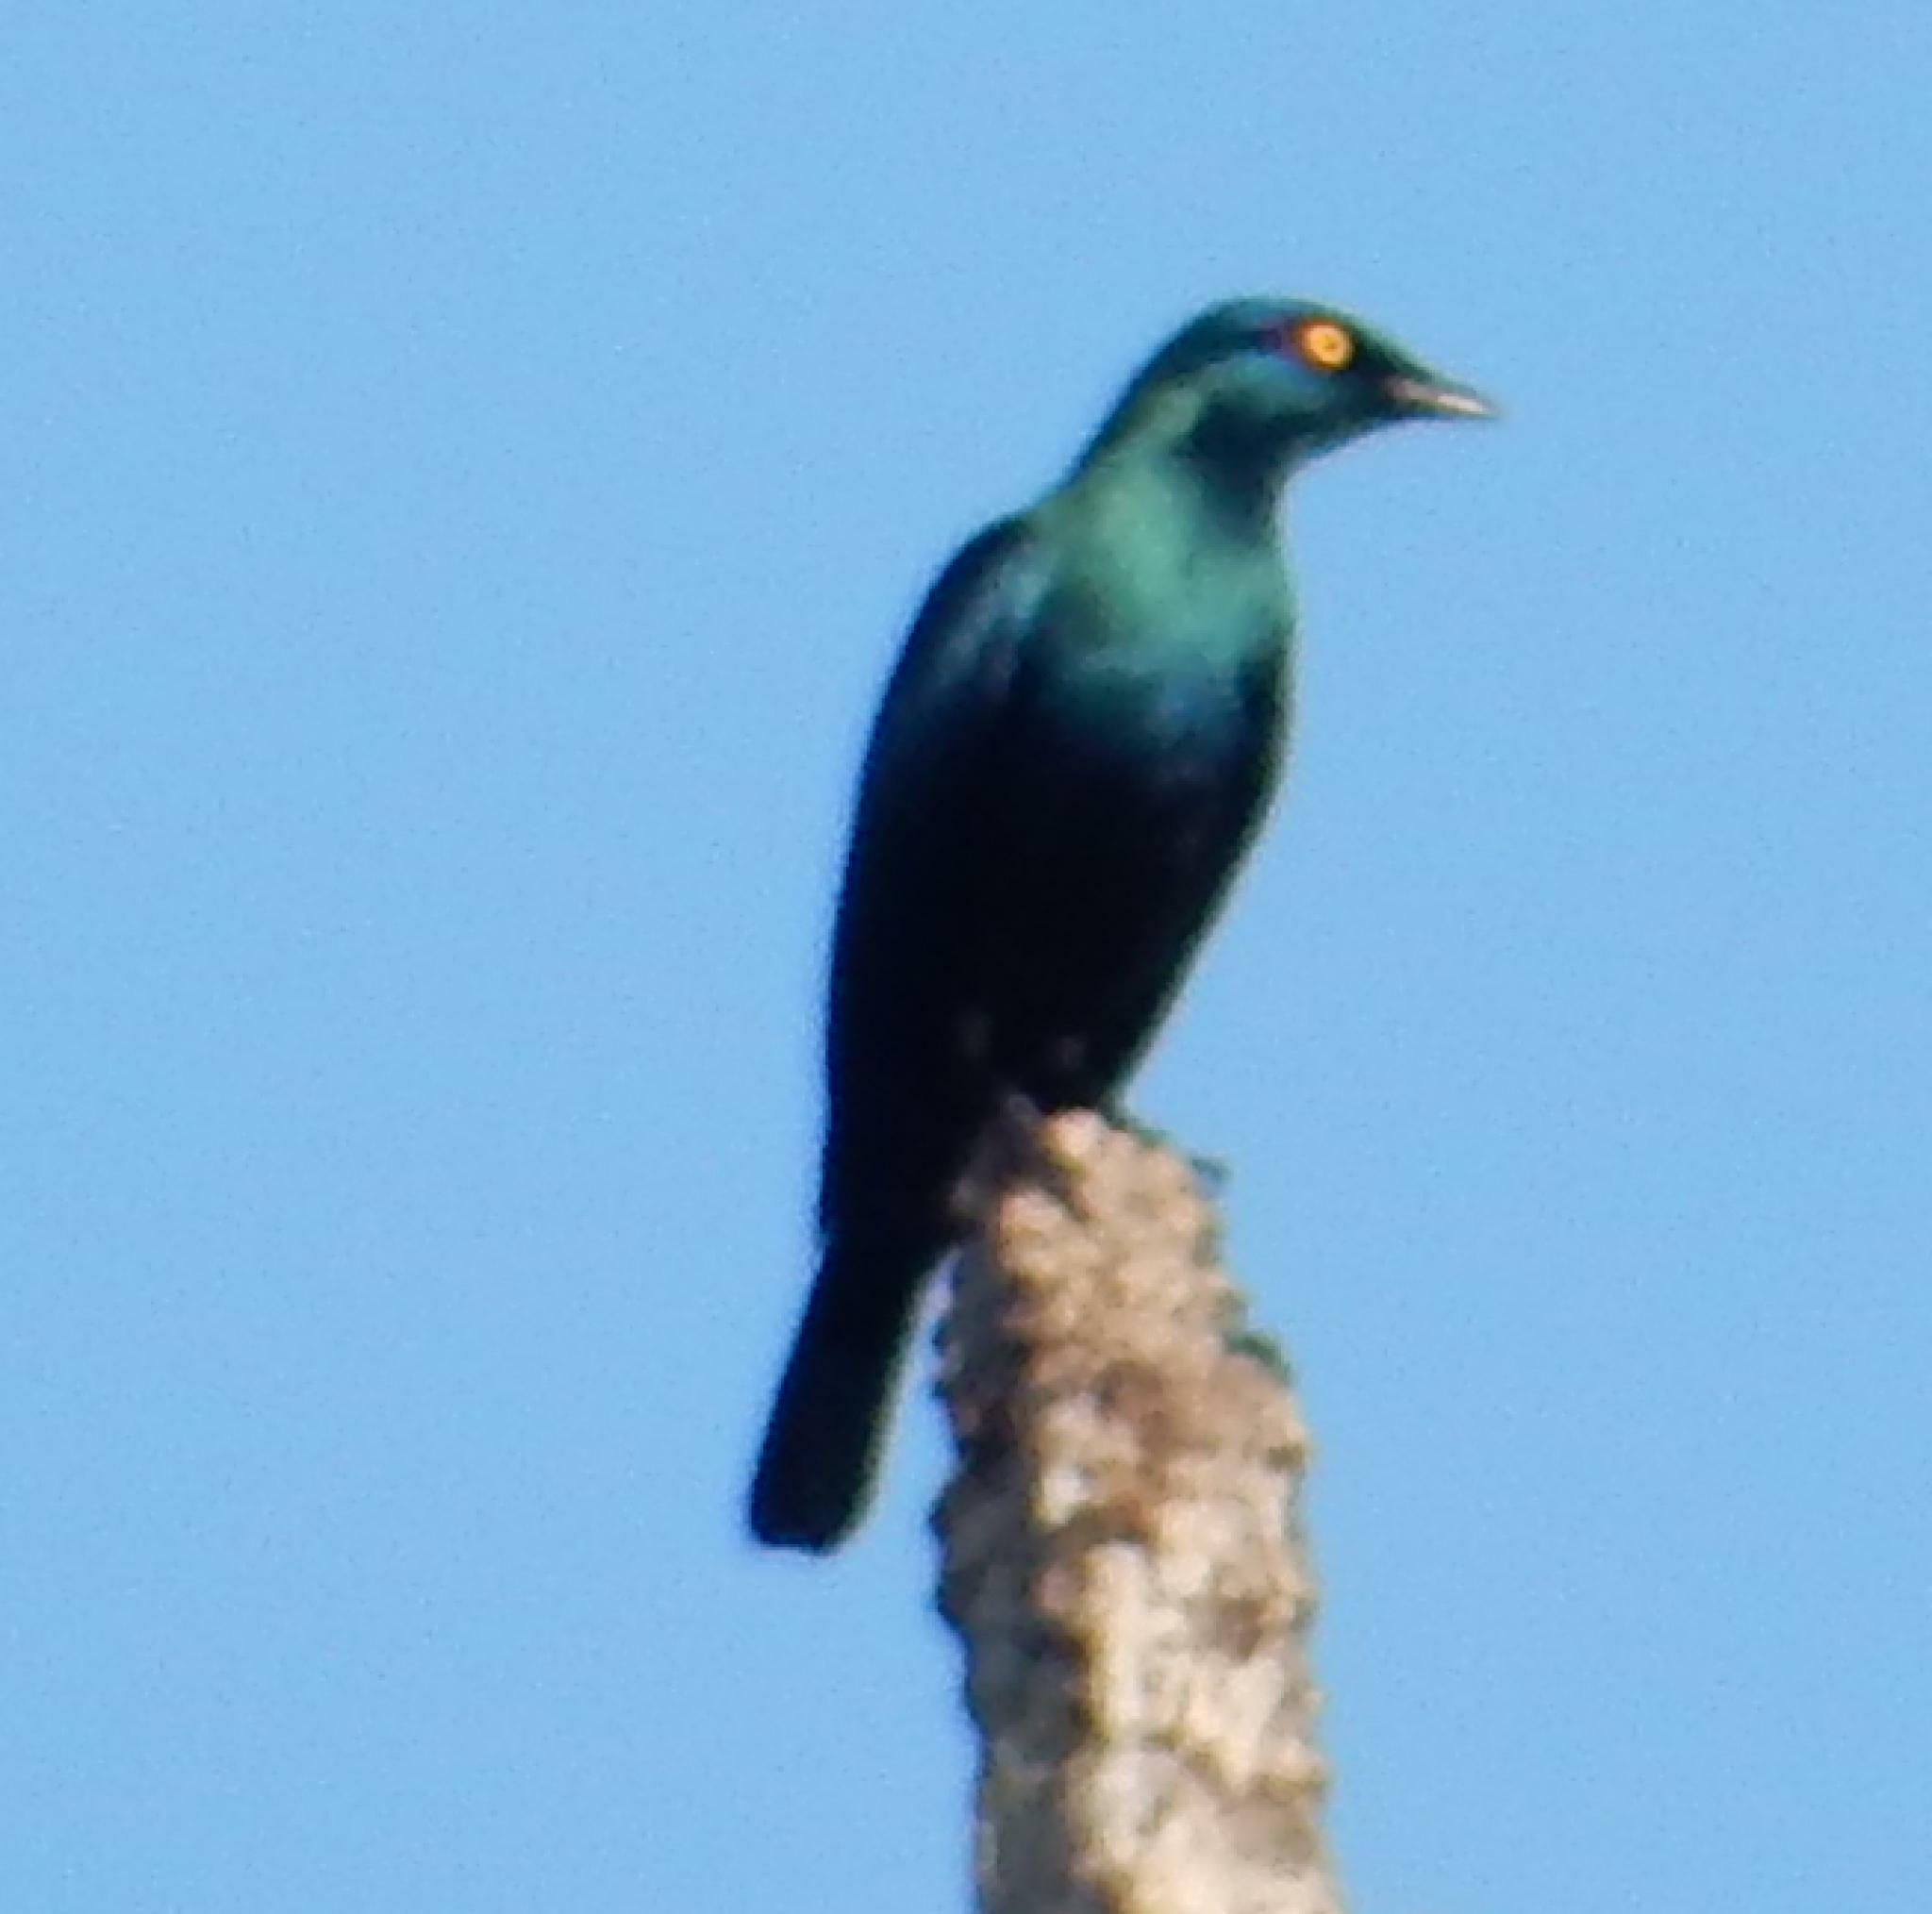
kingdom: Animalia
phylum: Chordata
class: Aves
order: Passeriformes
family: Sturnidae
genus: Lamprotornis
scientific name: Lamprotornis nitens
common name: Cape starling
